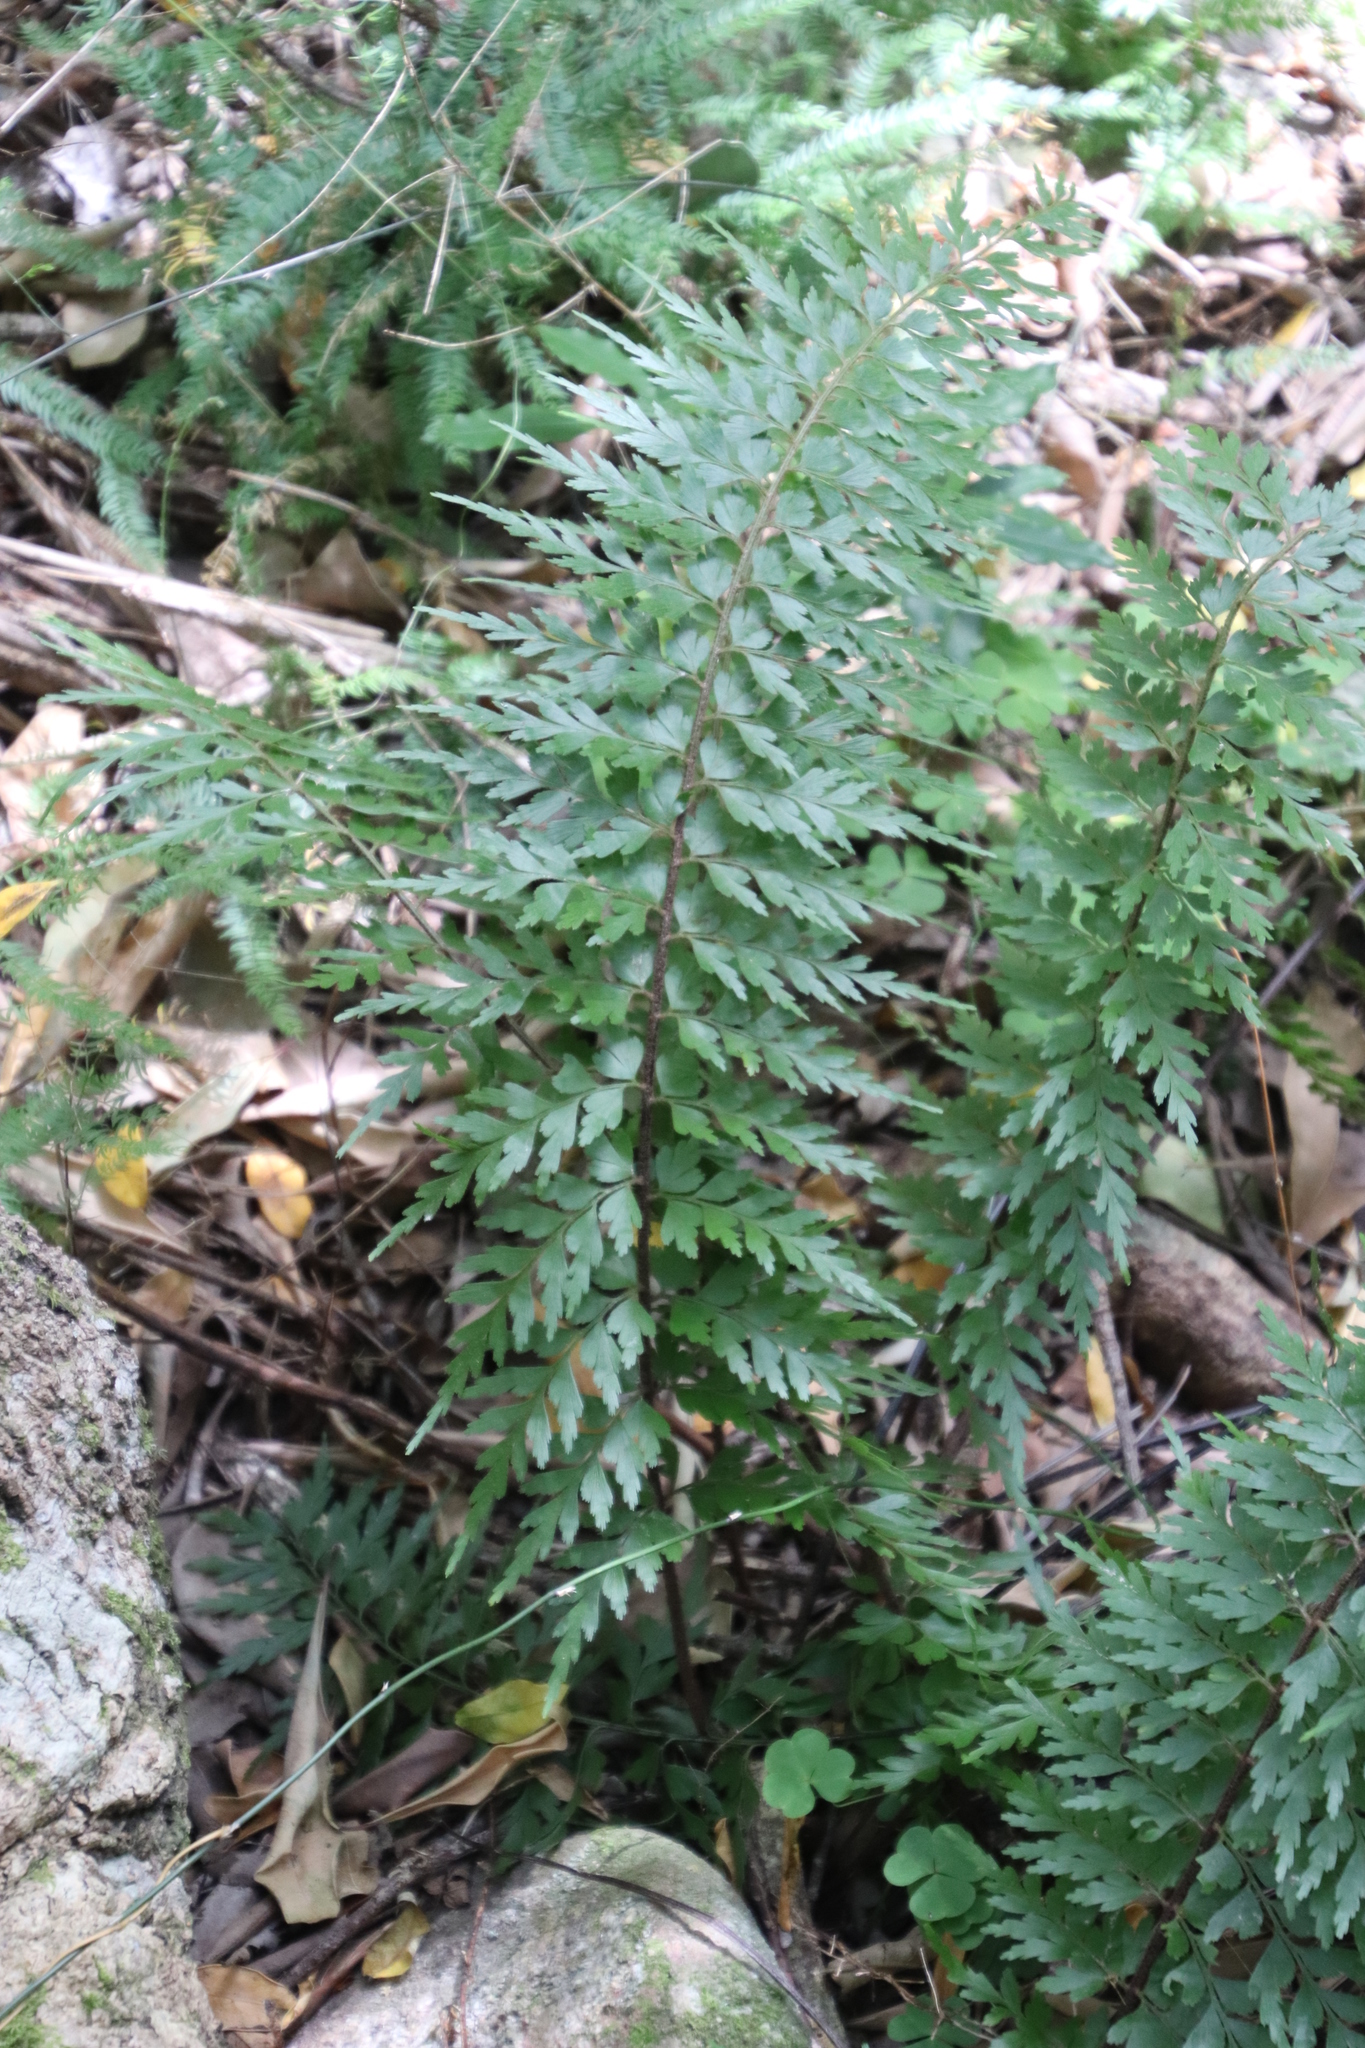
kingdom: Plantae
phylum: Tracheophyta
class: Polypodiopsida
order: Polypodiales
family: Aspleniaceae
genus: Asplenium
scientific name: Asplenium aethiopicum
